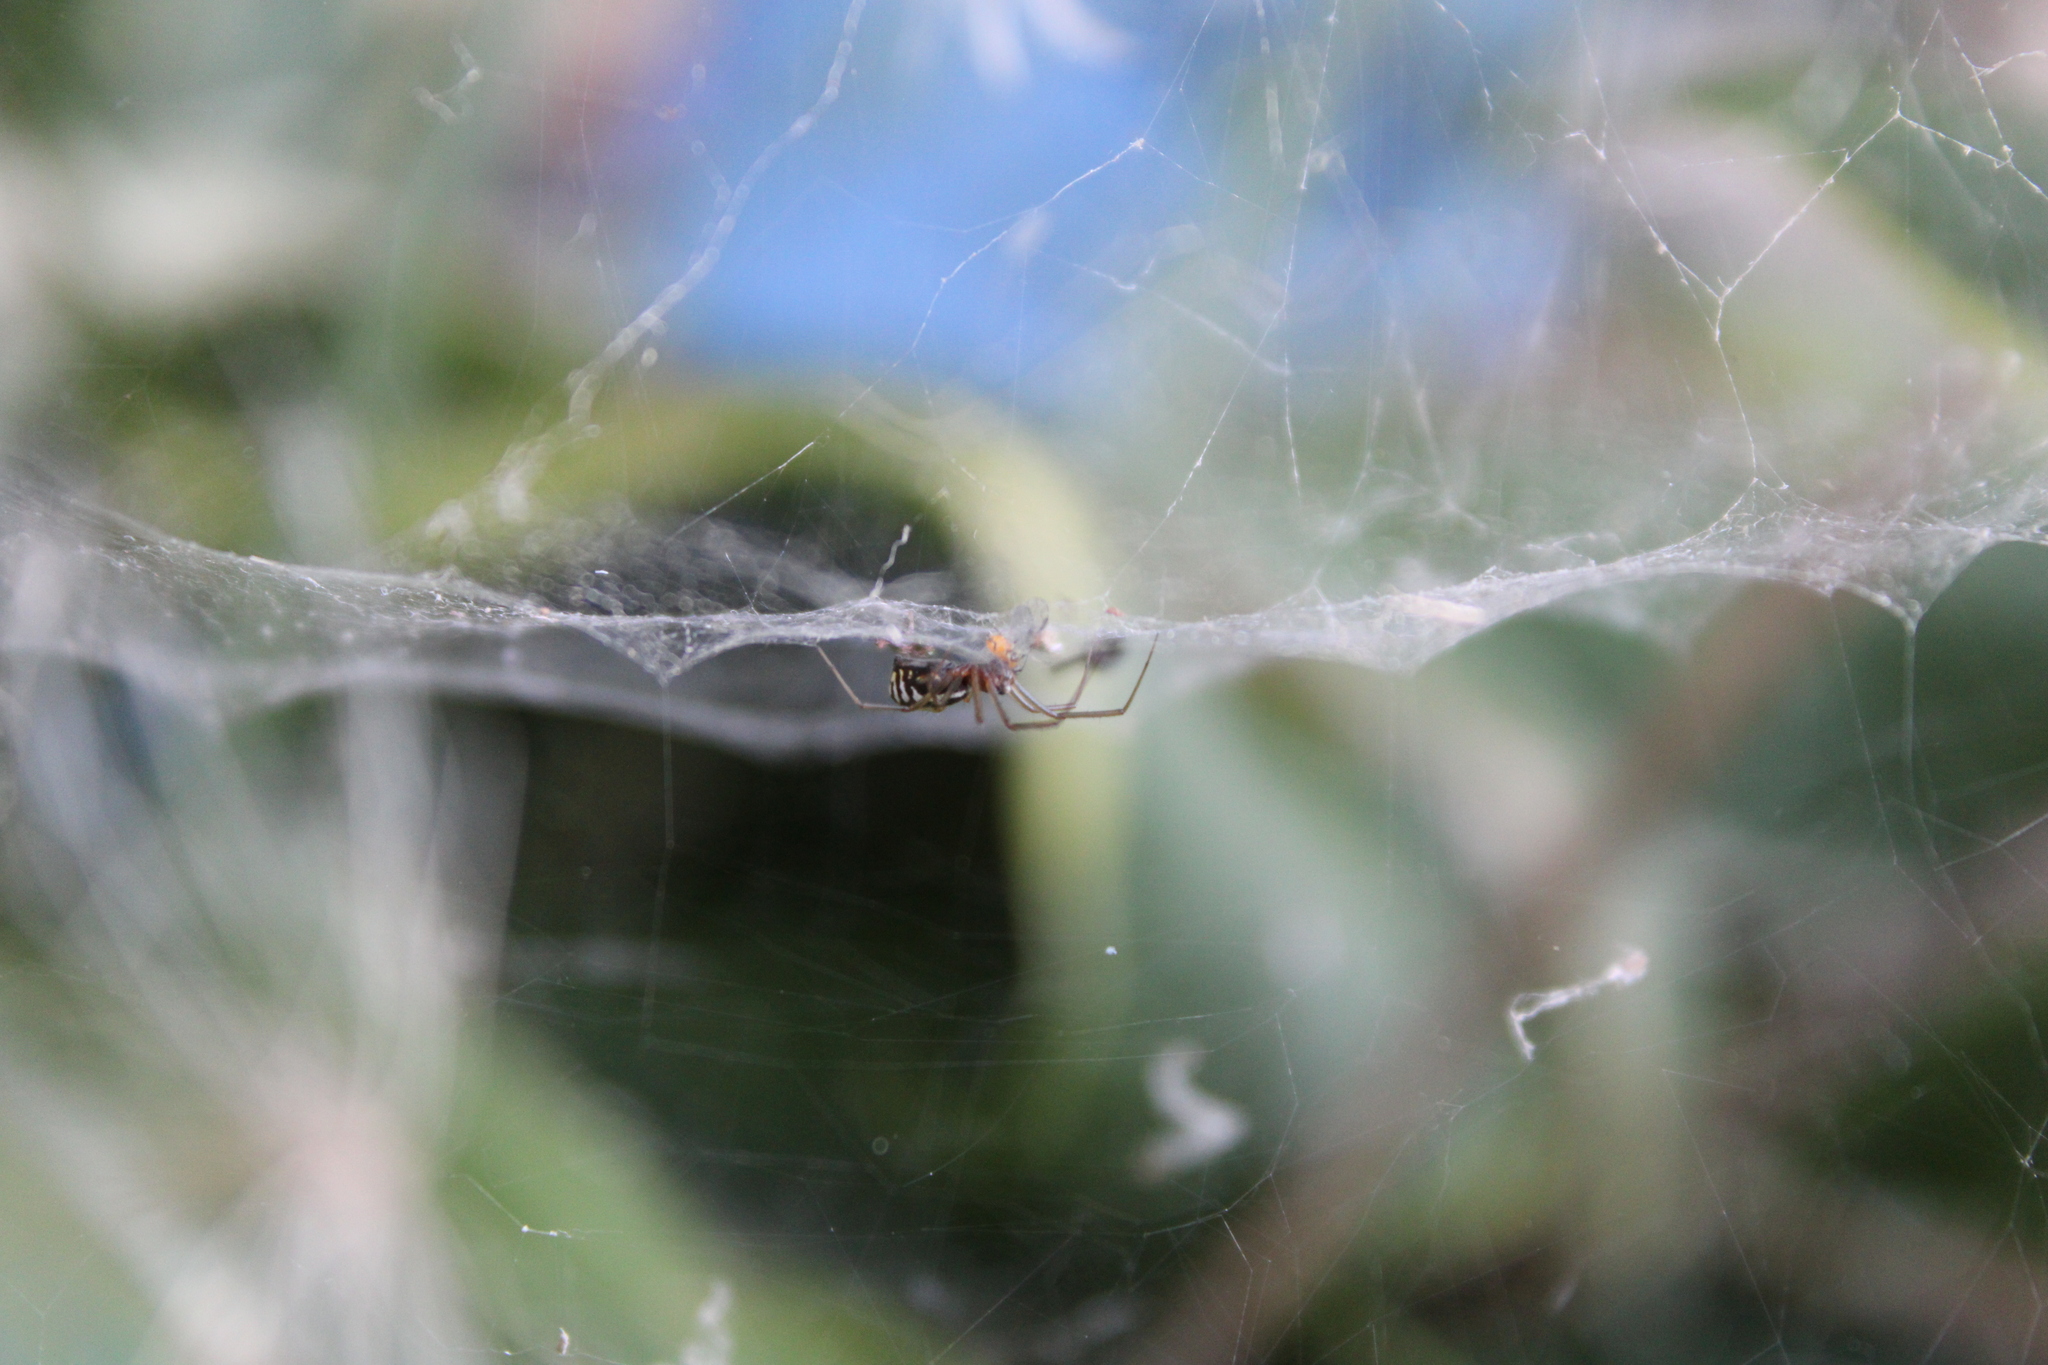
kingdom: Animalia
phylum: Arthropoda
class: Arachnida
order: Araneae
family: Linyphiidae
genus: Frontinella
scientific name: Frontinella pyramitela
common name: Bowl-and-doily spider
